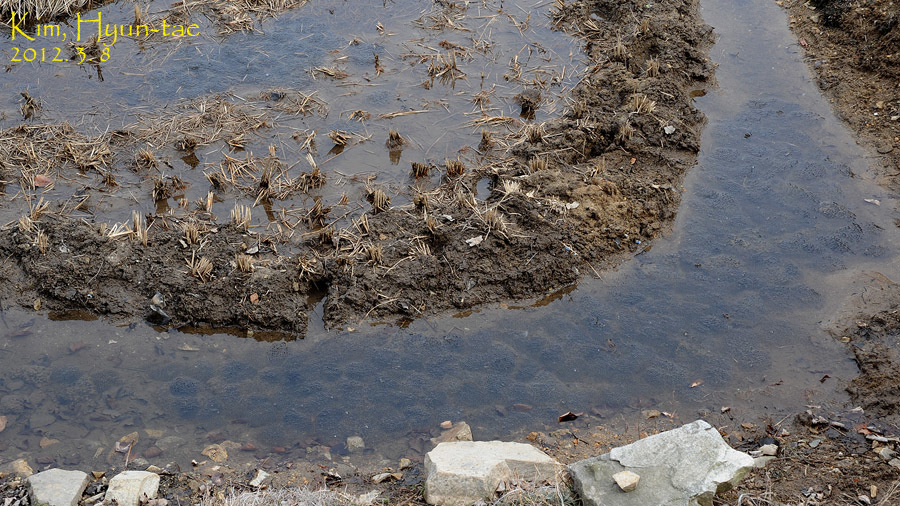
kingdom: Animalia
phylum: Chordata
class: Amphibia
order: Anura
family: Ranidae
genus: Rana
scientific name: Rana uenoi
